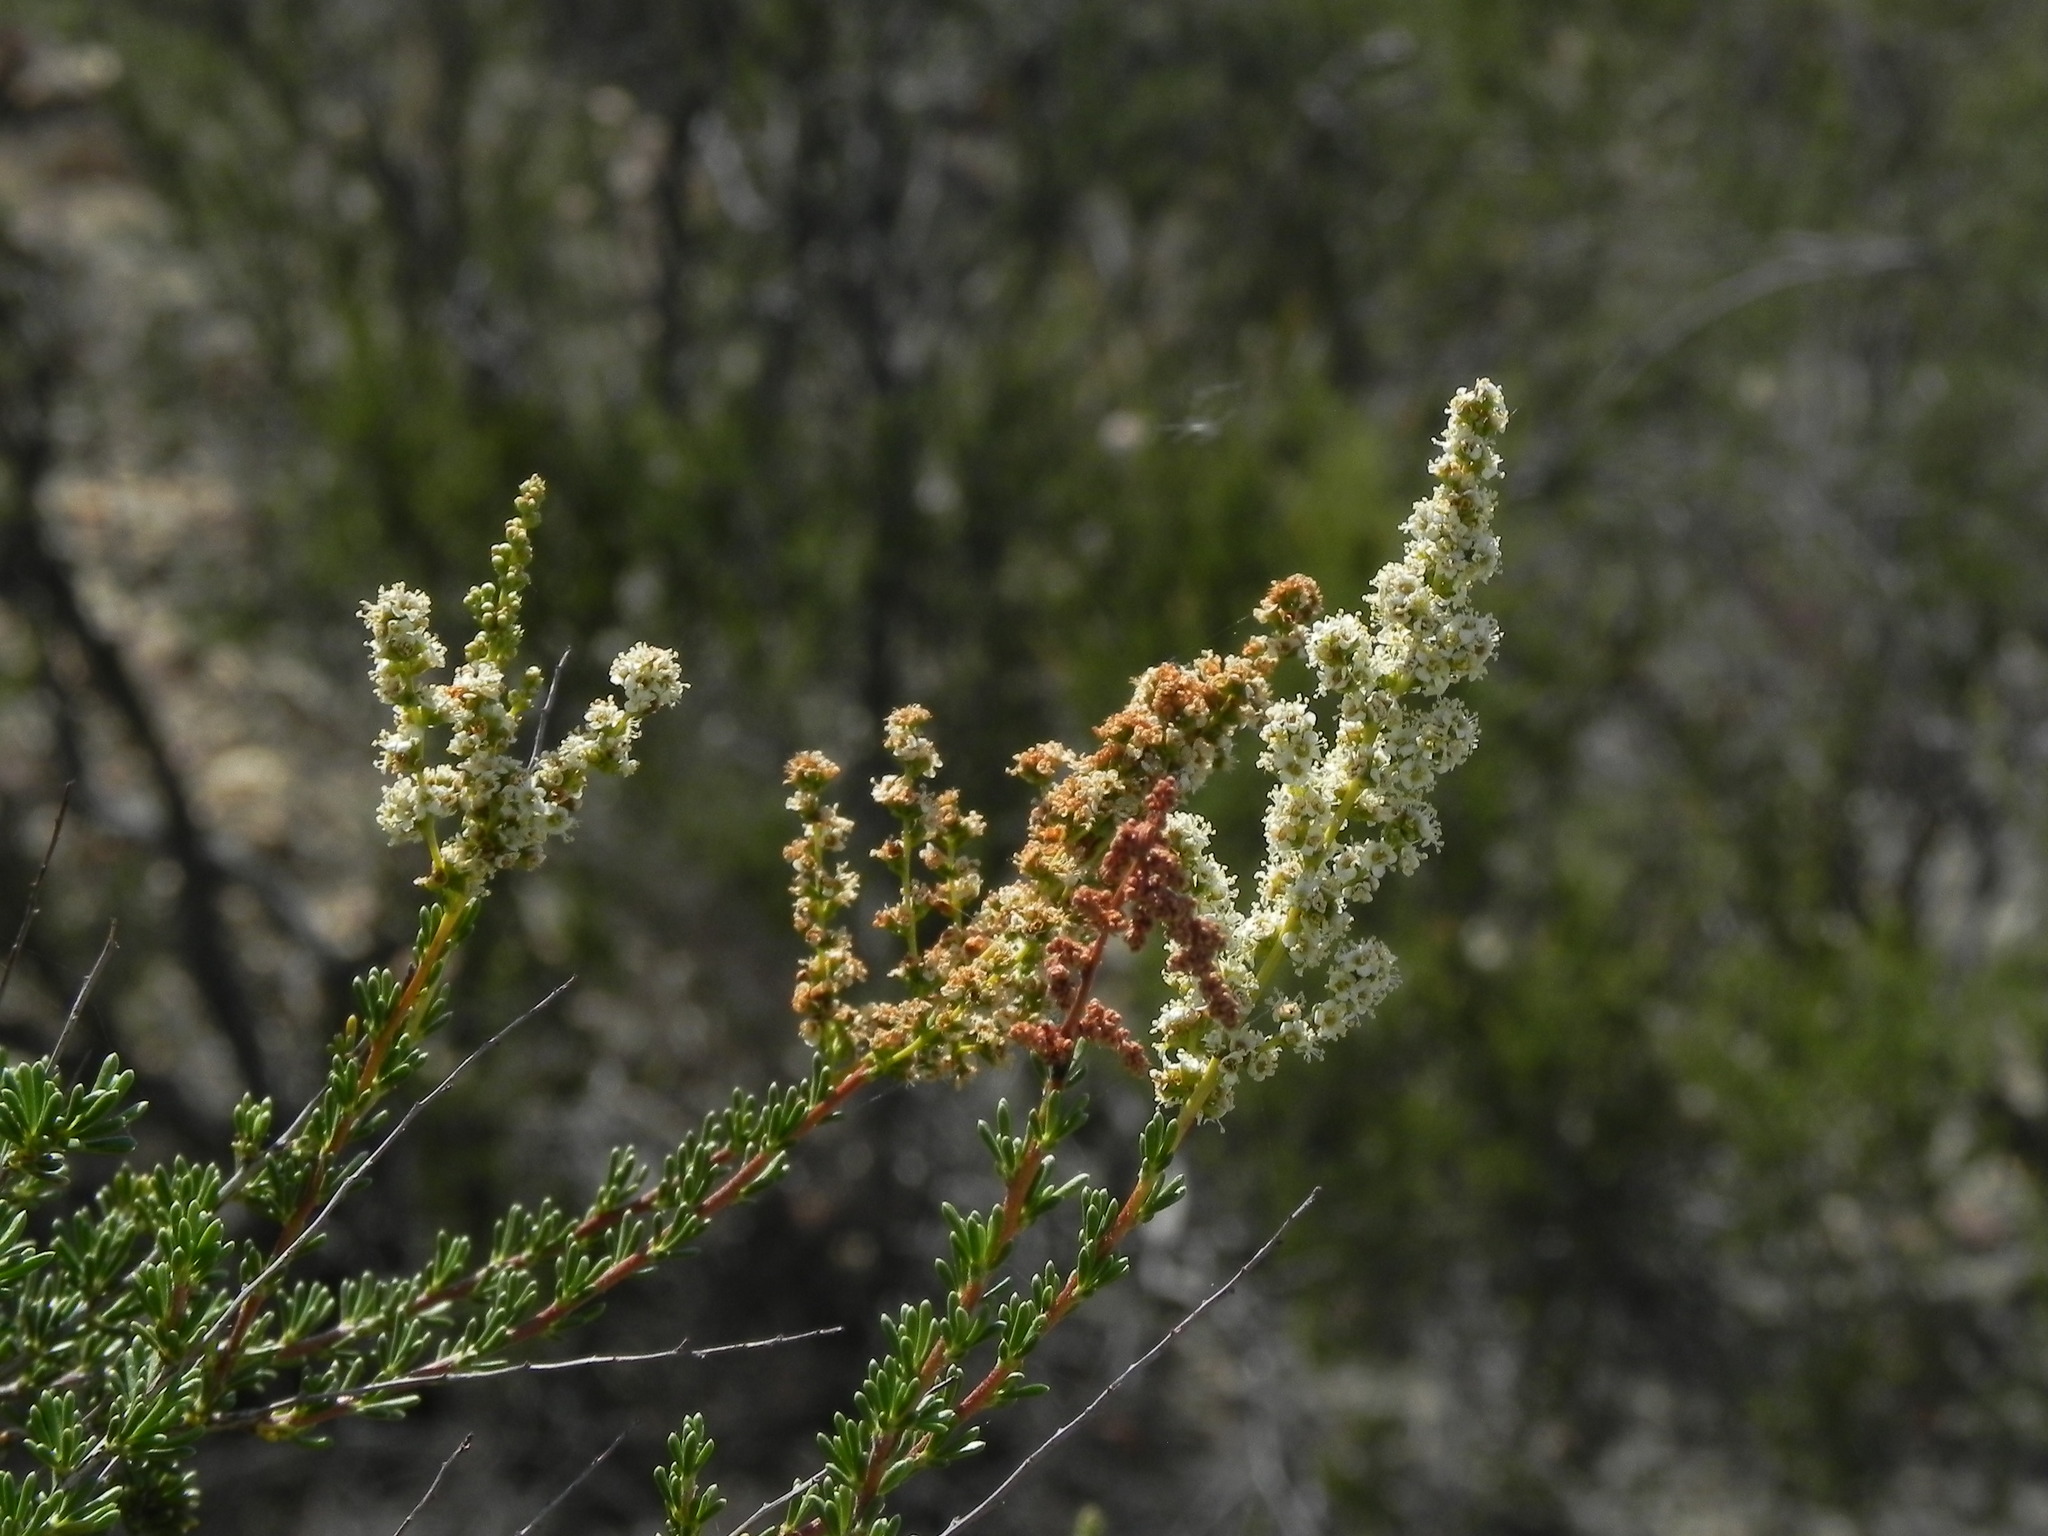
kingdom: Plantae
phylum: Tracheophyta
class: Magnoliopsida
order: Rosales
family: Rosaceae
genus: Adenostoma
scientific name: Adenostoma fasciculatum
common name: Chamise
